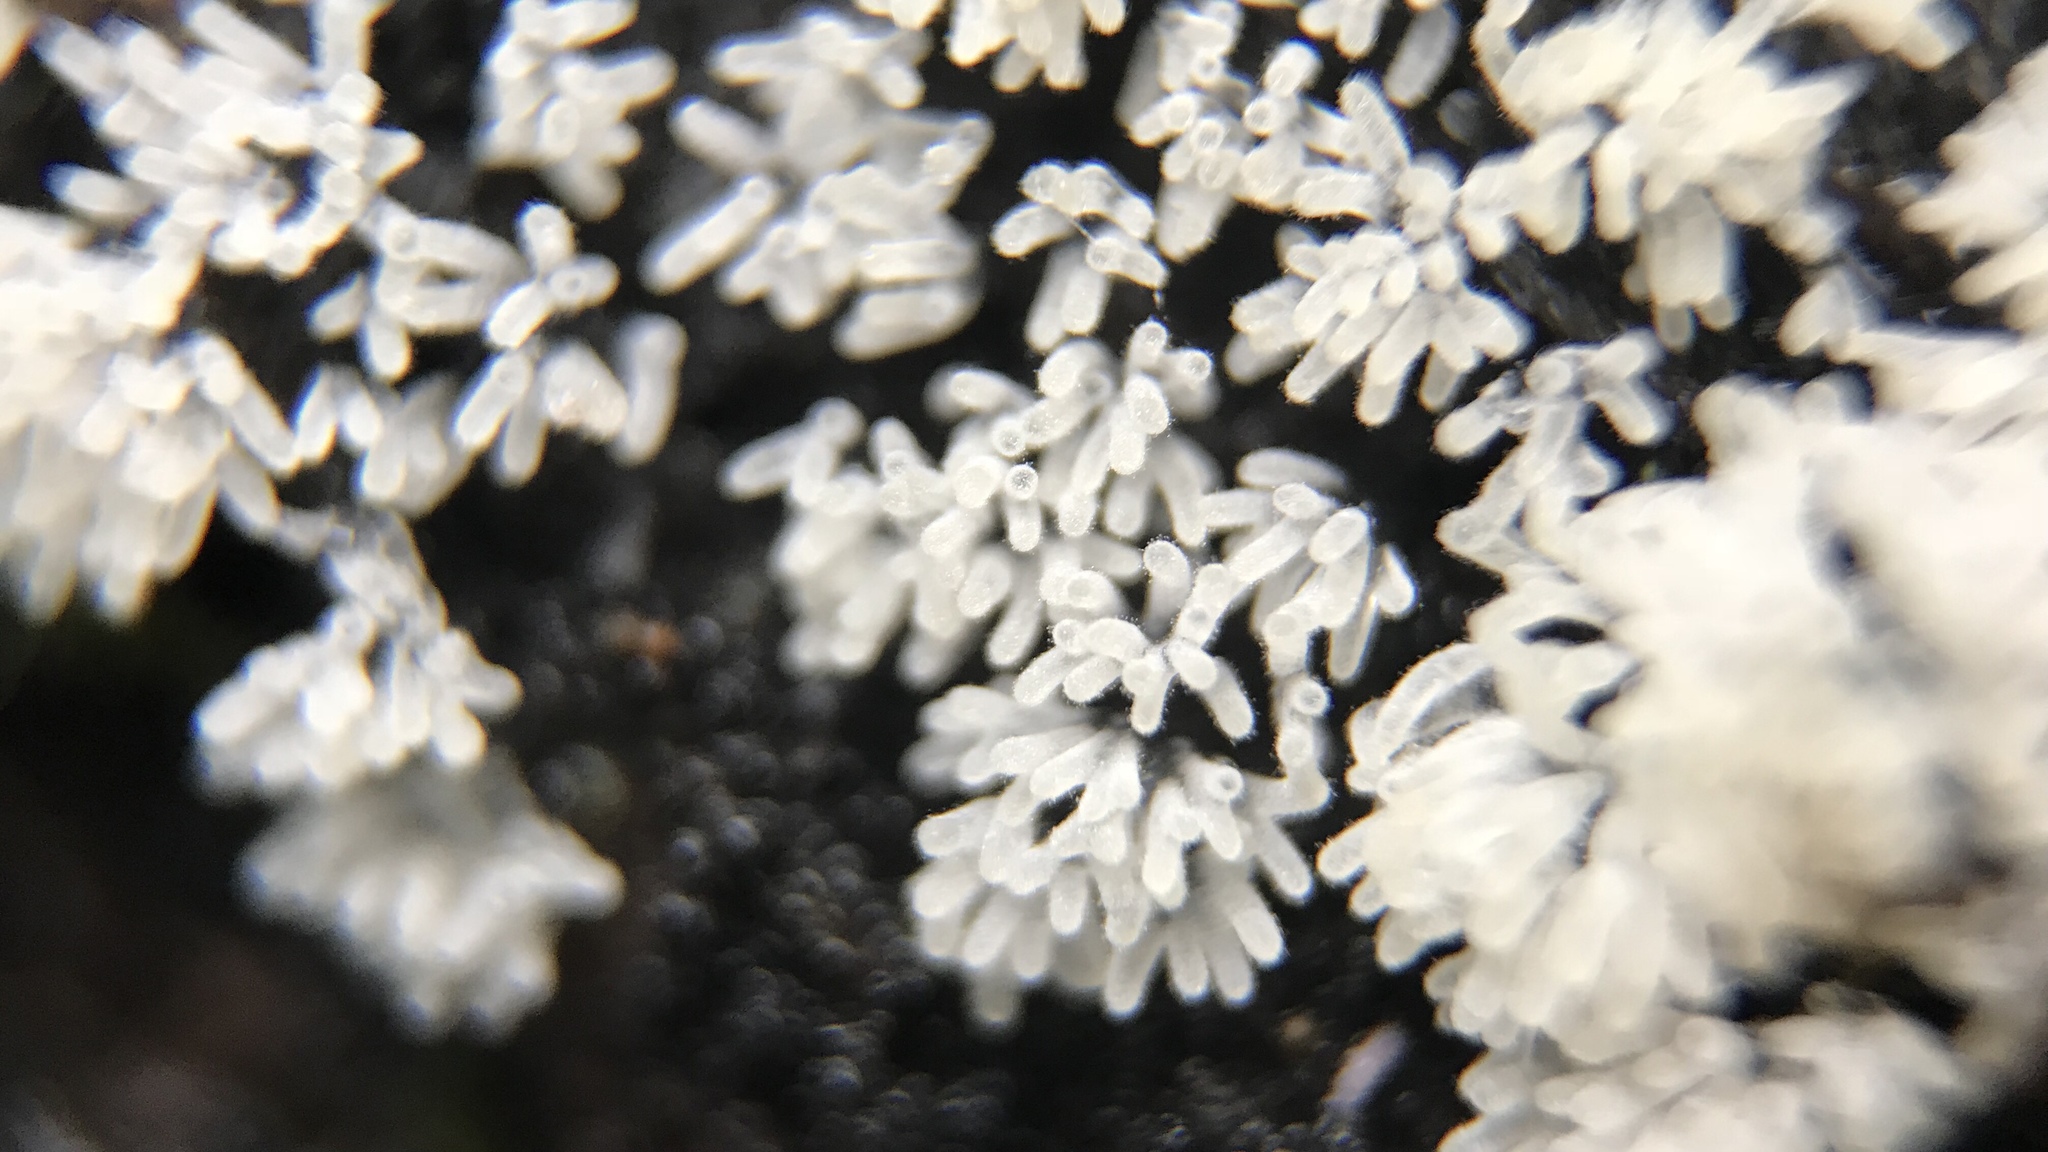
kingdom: Protozoa
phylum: Mycetozoa
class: Protosteliomycetes
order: Ceratiomyxales
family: Ceratiomyxaceae
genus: Ceratiomyxa
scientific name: Ceratiomyxa fruticulosa
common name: Honeycomb coral slime mold
